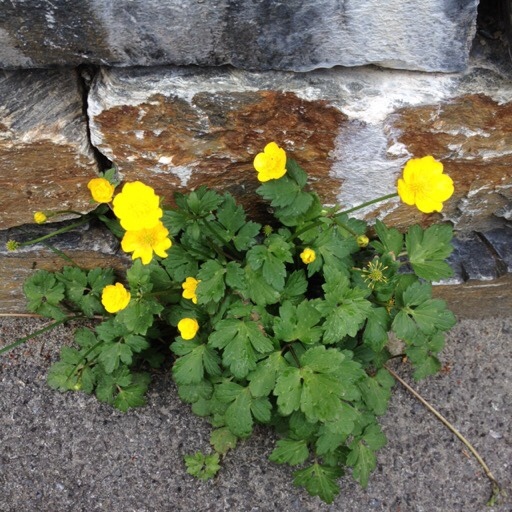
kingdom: Plantae
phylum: Tracheophyta
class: Magnoliopsida
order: Ranunculales
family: Ranunculaceae
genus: Ranunculus
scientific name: Ranunculus repens
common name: Creeping buttercup
